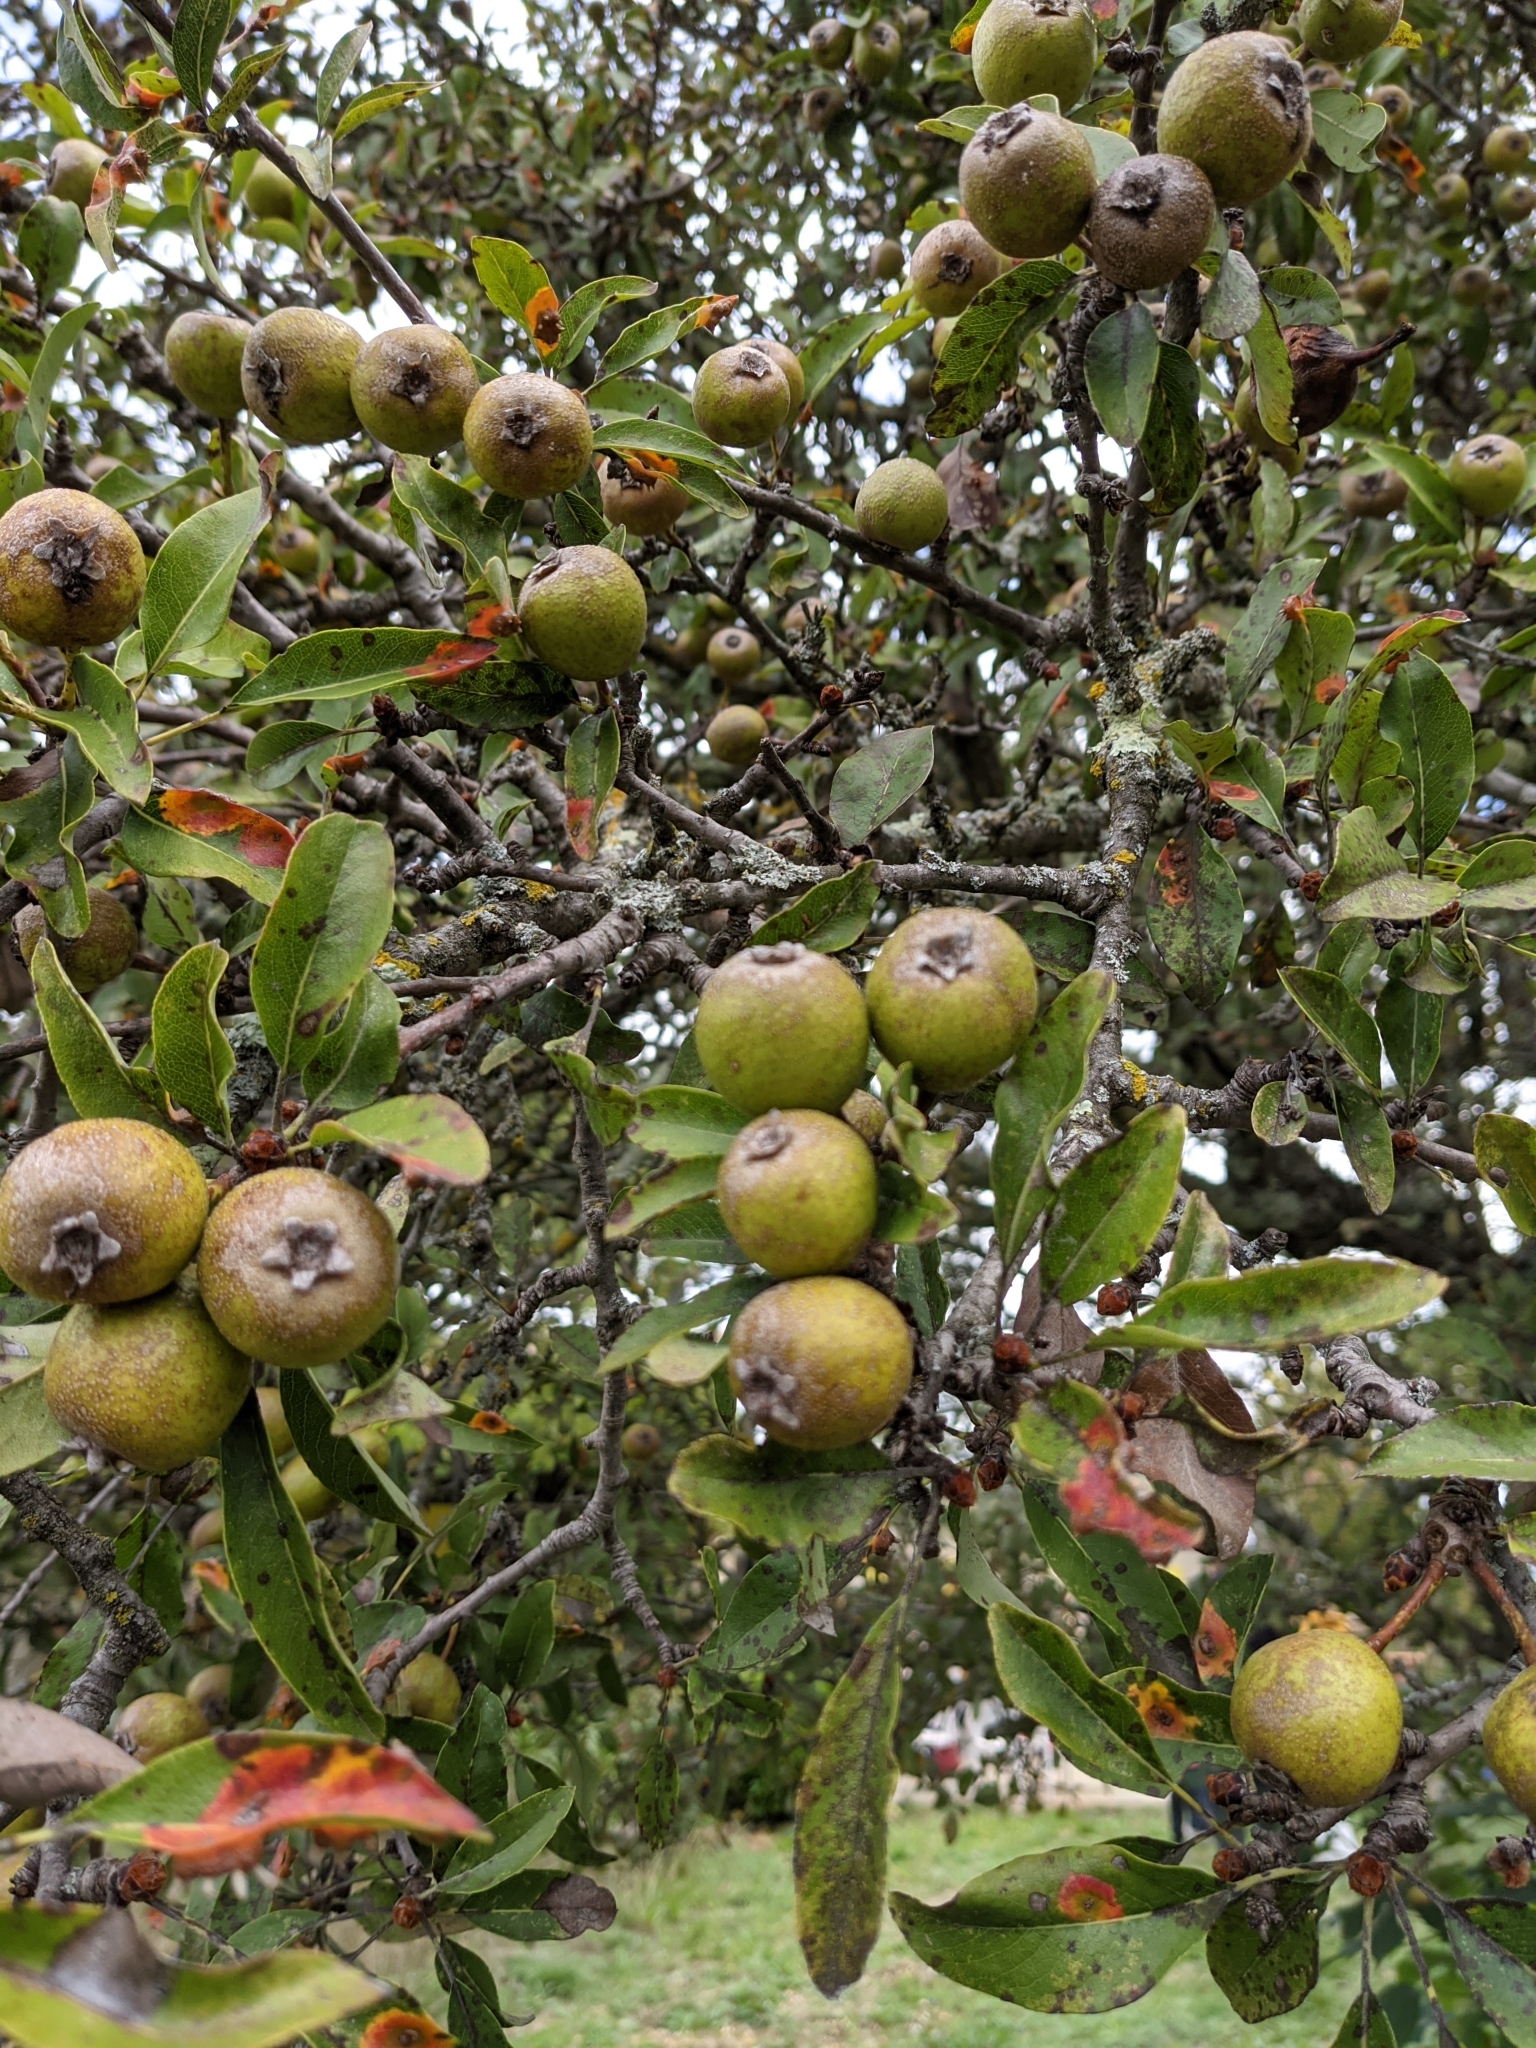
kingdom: Plantae
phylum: Tracheophyta
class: Magnoliopsida
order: Rosales
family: Rosaceae
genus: Pyrus
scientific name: Pyrus spinosa
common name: Almond-leaf pear
